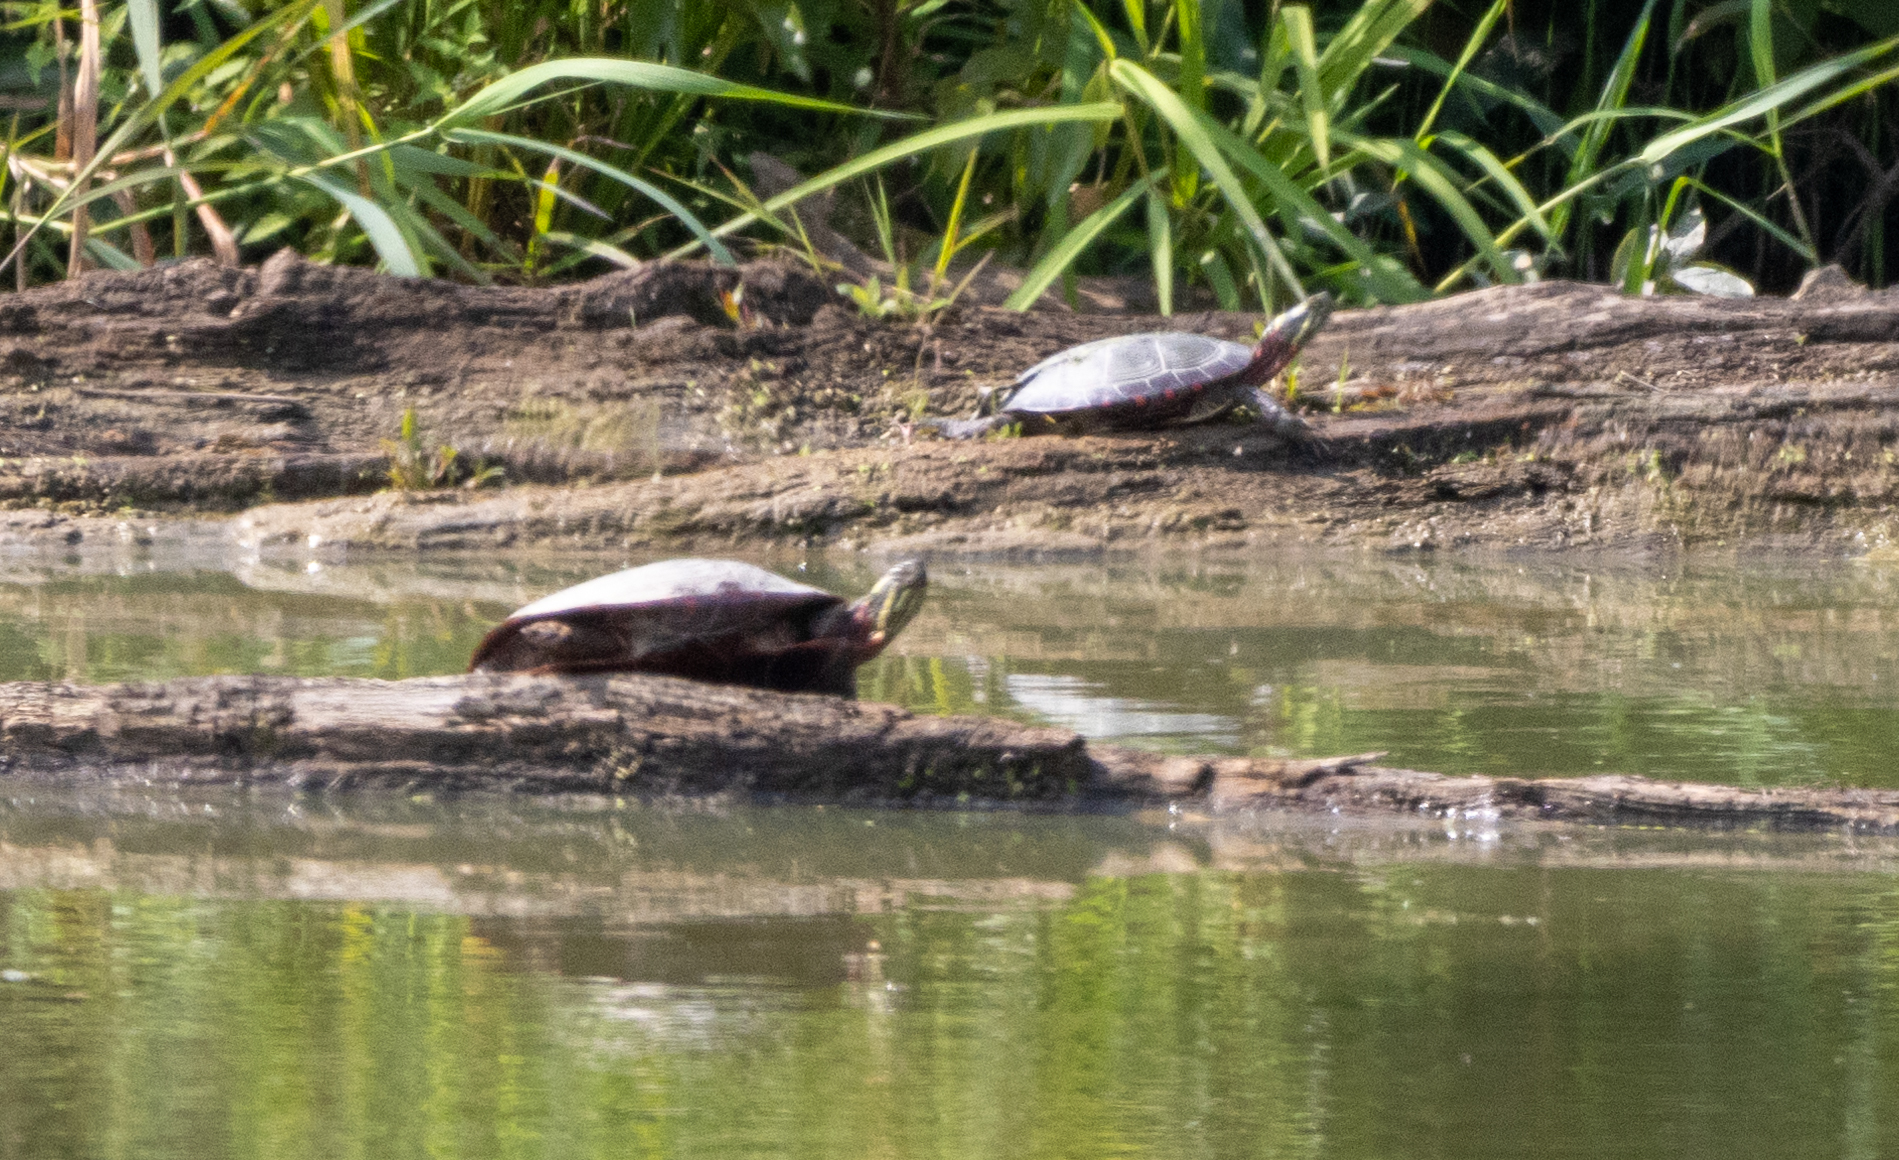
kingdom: Animalia
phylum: Chordata
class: Testudines
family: Emydidae
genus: Chrysemys
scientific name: Chrysemys picta
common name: Painted turtle
